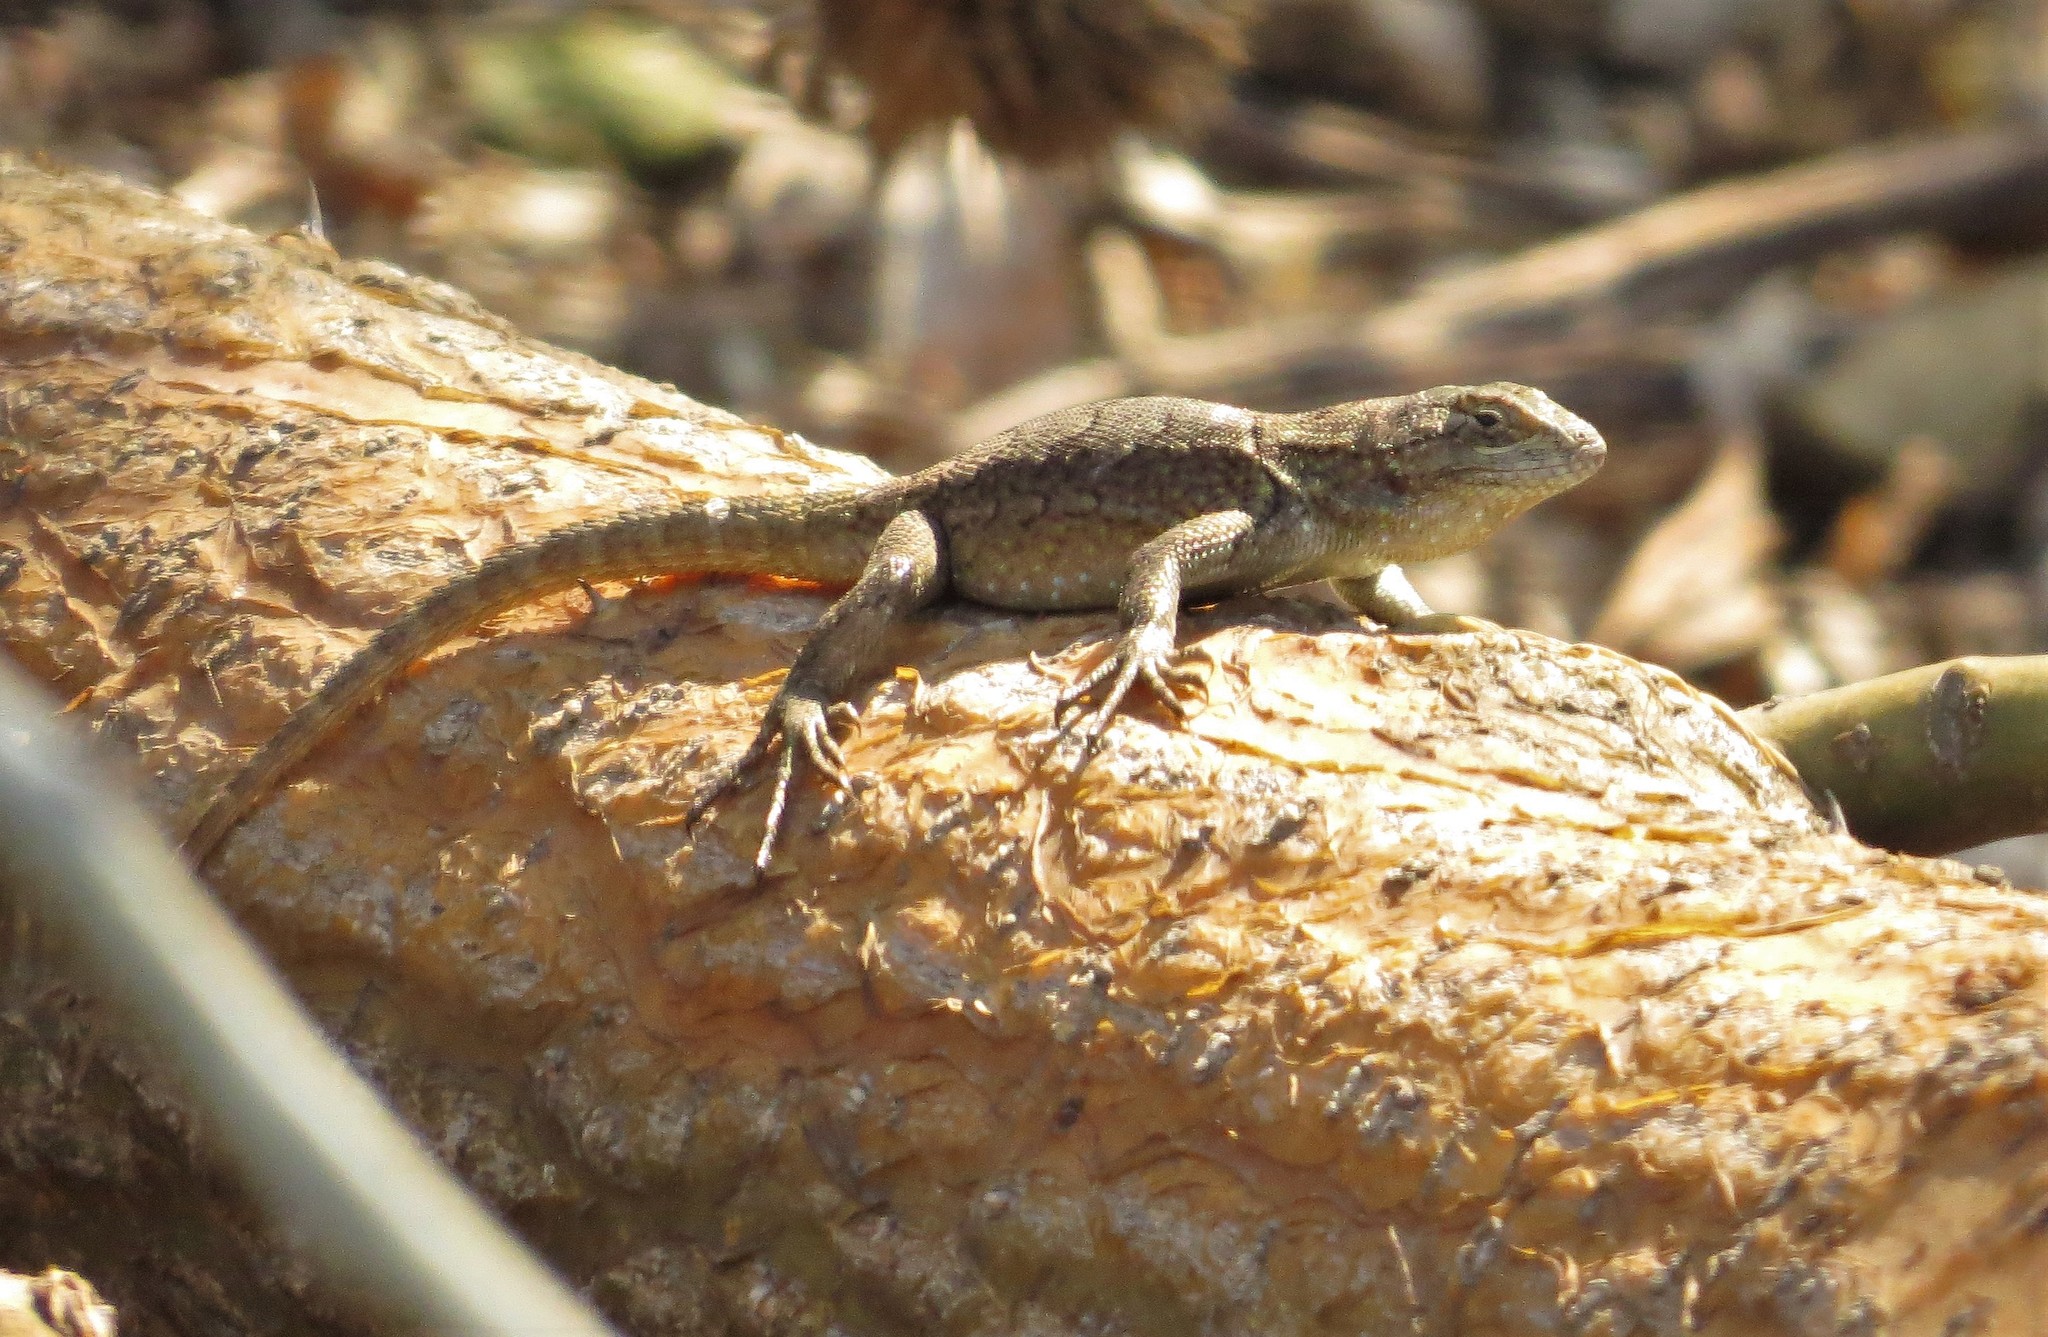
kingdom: Animalia
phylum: Chordata
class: Squamata
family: Phrynosomatidae
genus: Sceloporus
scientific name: Sceloporus grammicus
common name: Mesquite lizard
